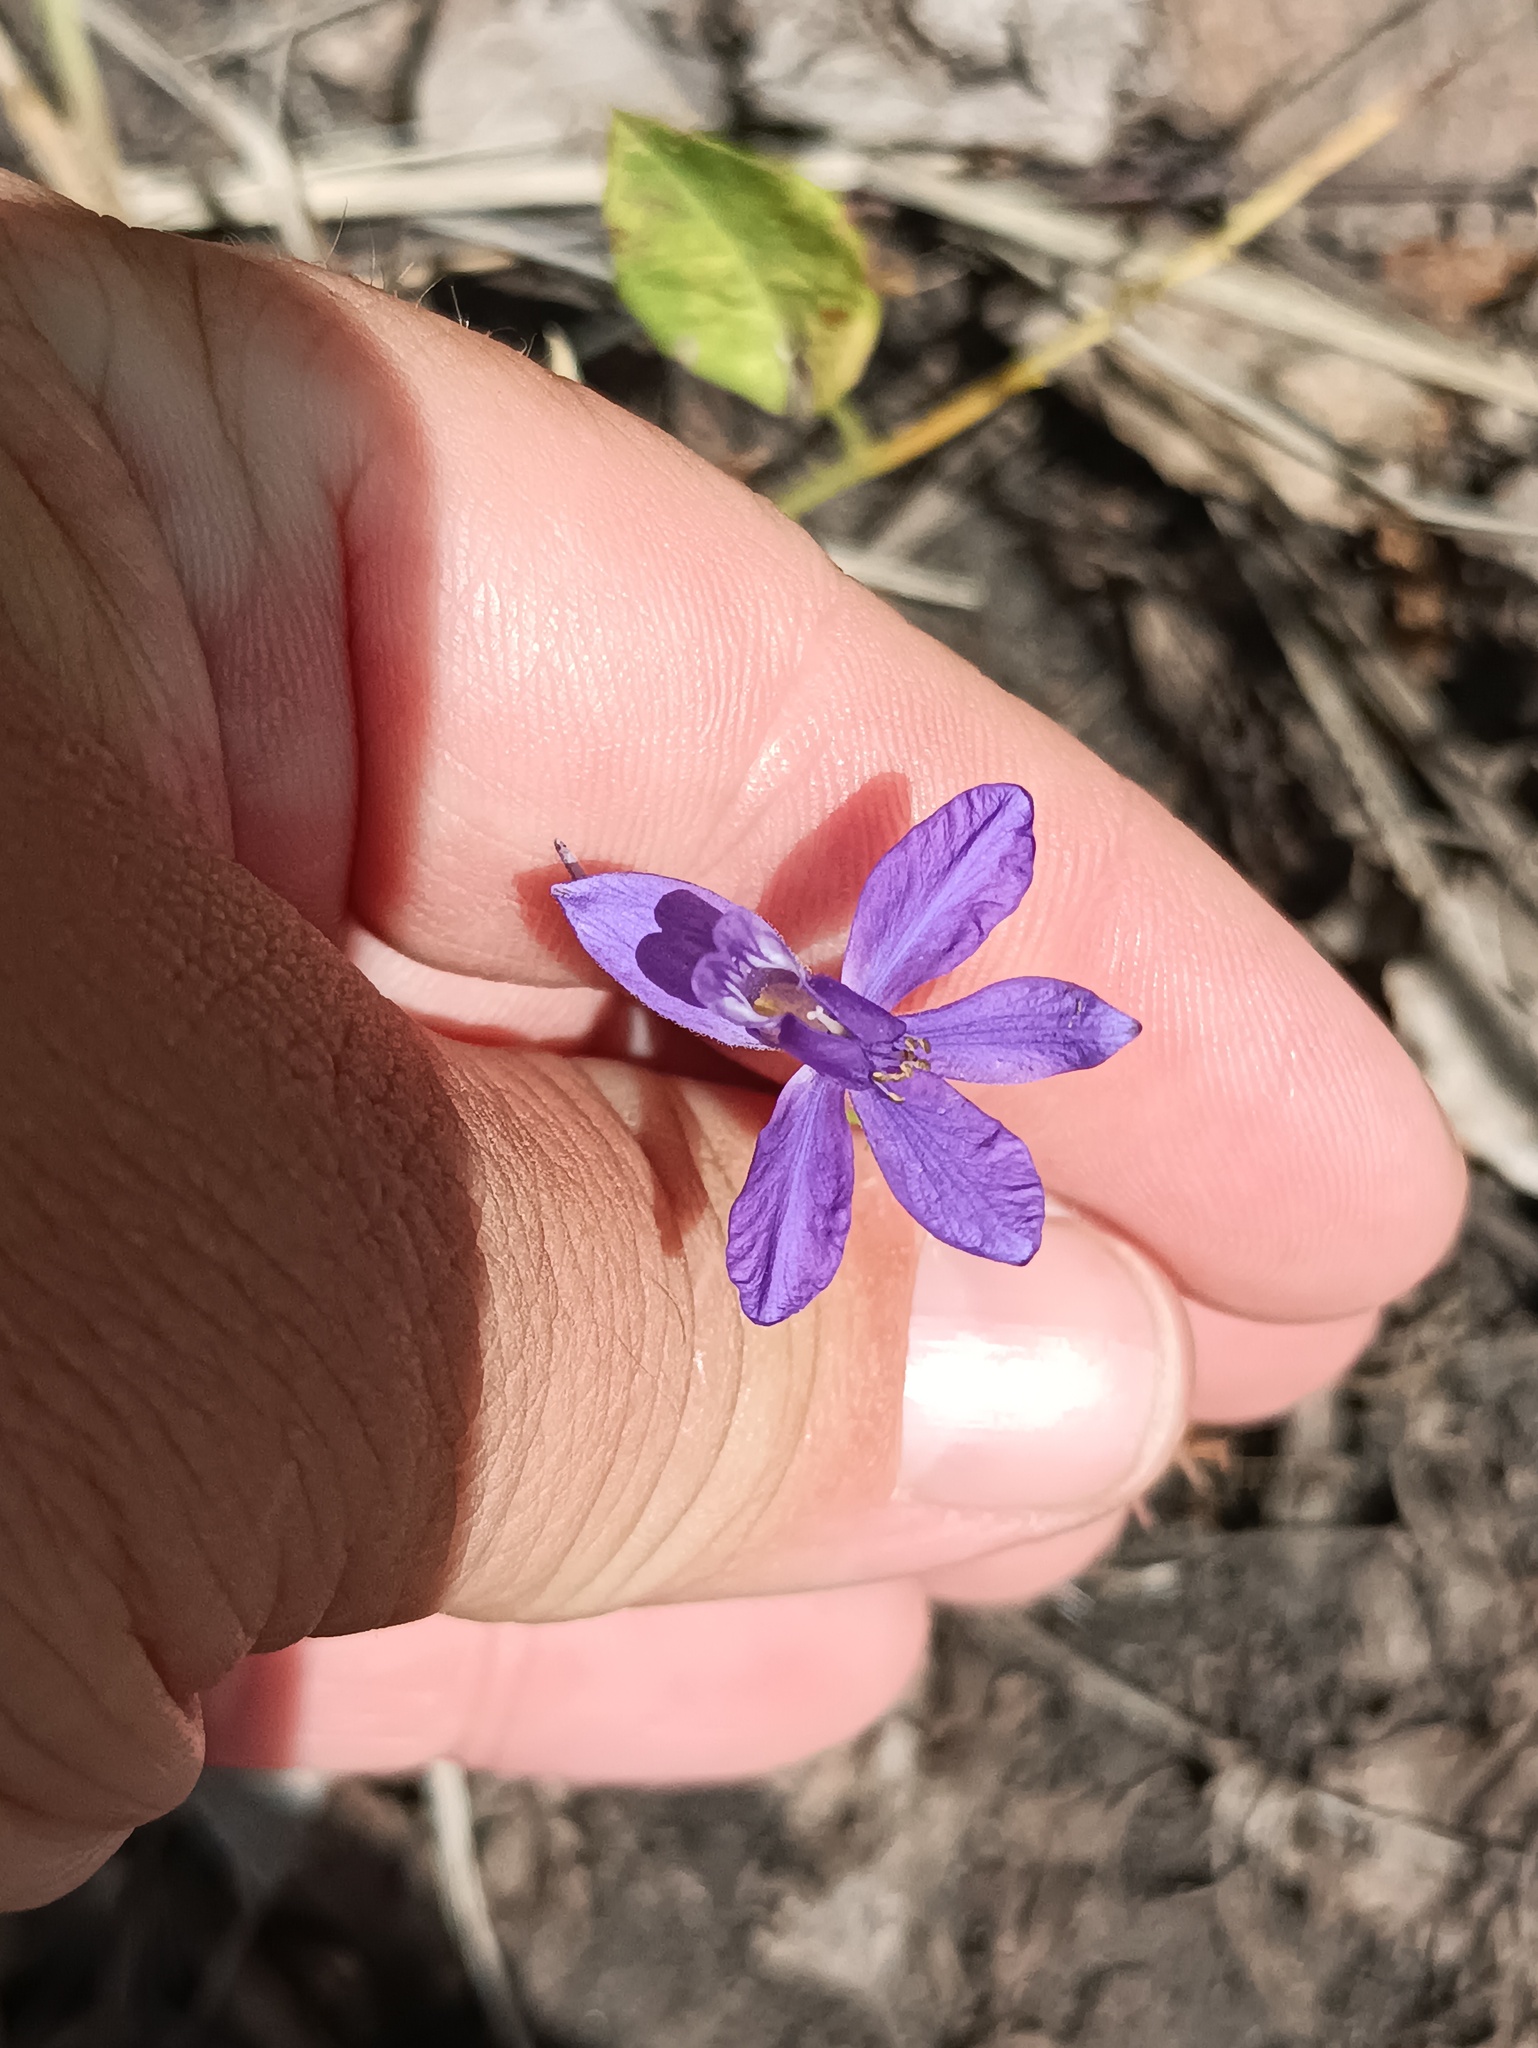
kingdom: Plantae
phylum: Tracheophyta
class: Magnoliopsida
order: Ranunculales
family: Ranunculaceae
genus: Delphinium
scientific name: Delphinium consolida
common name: Branching larkspur
